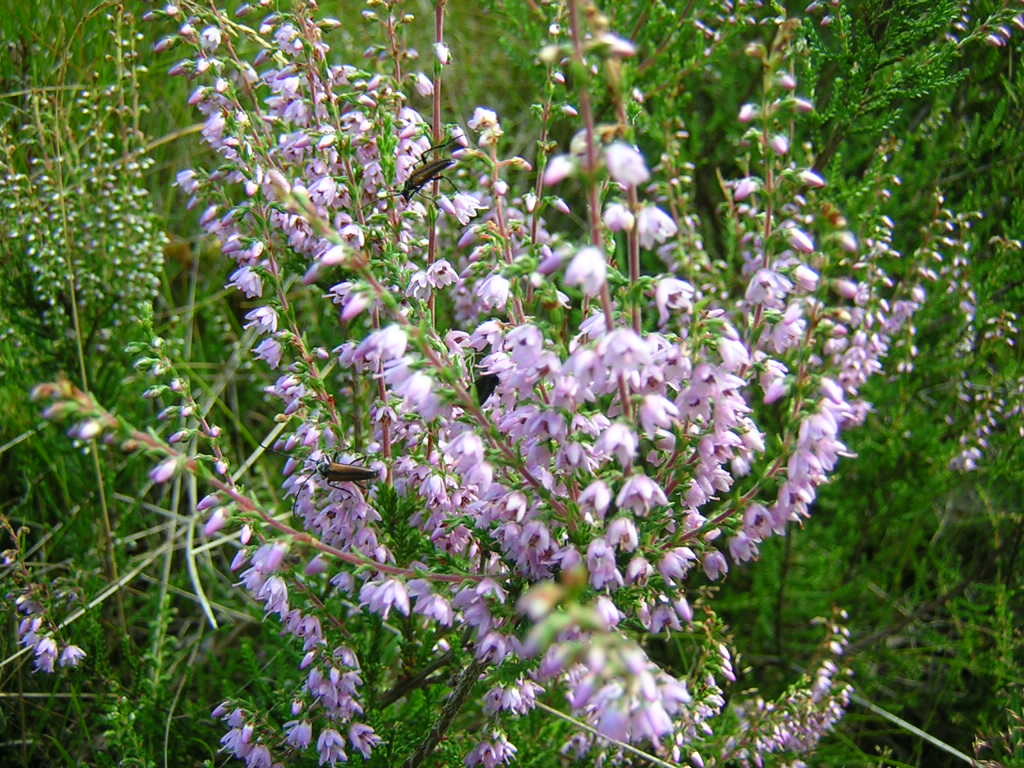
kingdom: Plantae
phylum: Tracheophyta
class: Magnoliopsida
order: Ericales
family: Ericaceae
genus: Calluna
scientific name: Calluna vulgaris
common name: Heather
